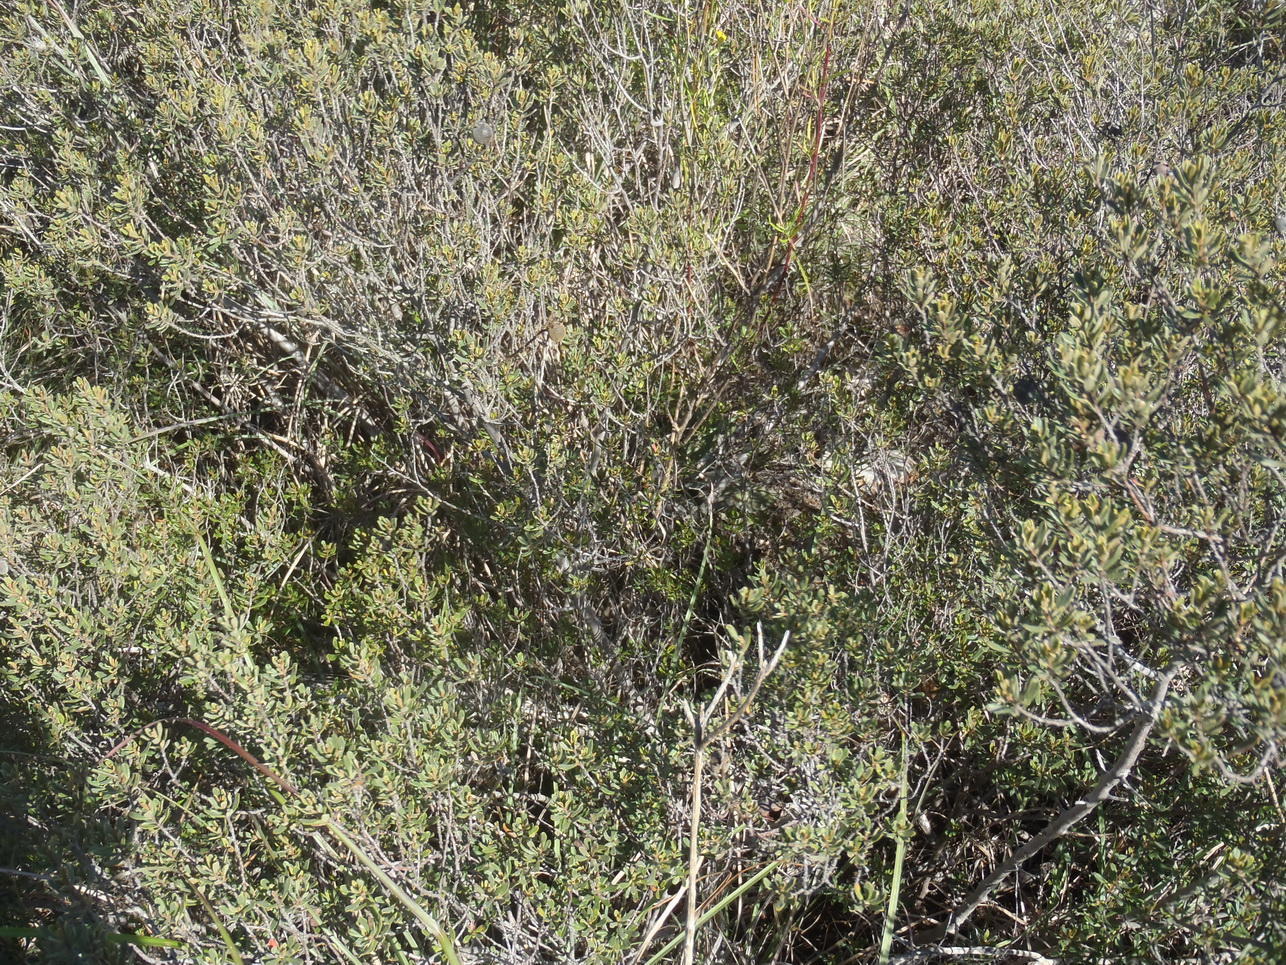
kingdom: Plantae
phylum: Tracheophyta
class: Magnoliopsida
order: Ericales
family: Ebenaceae
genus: Diospyros
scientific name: Diospyros pubescens
